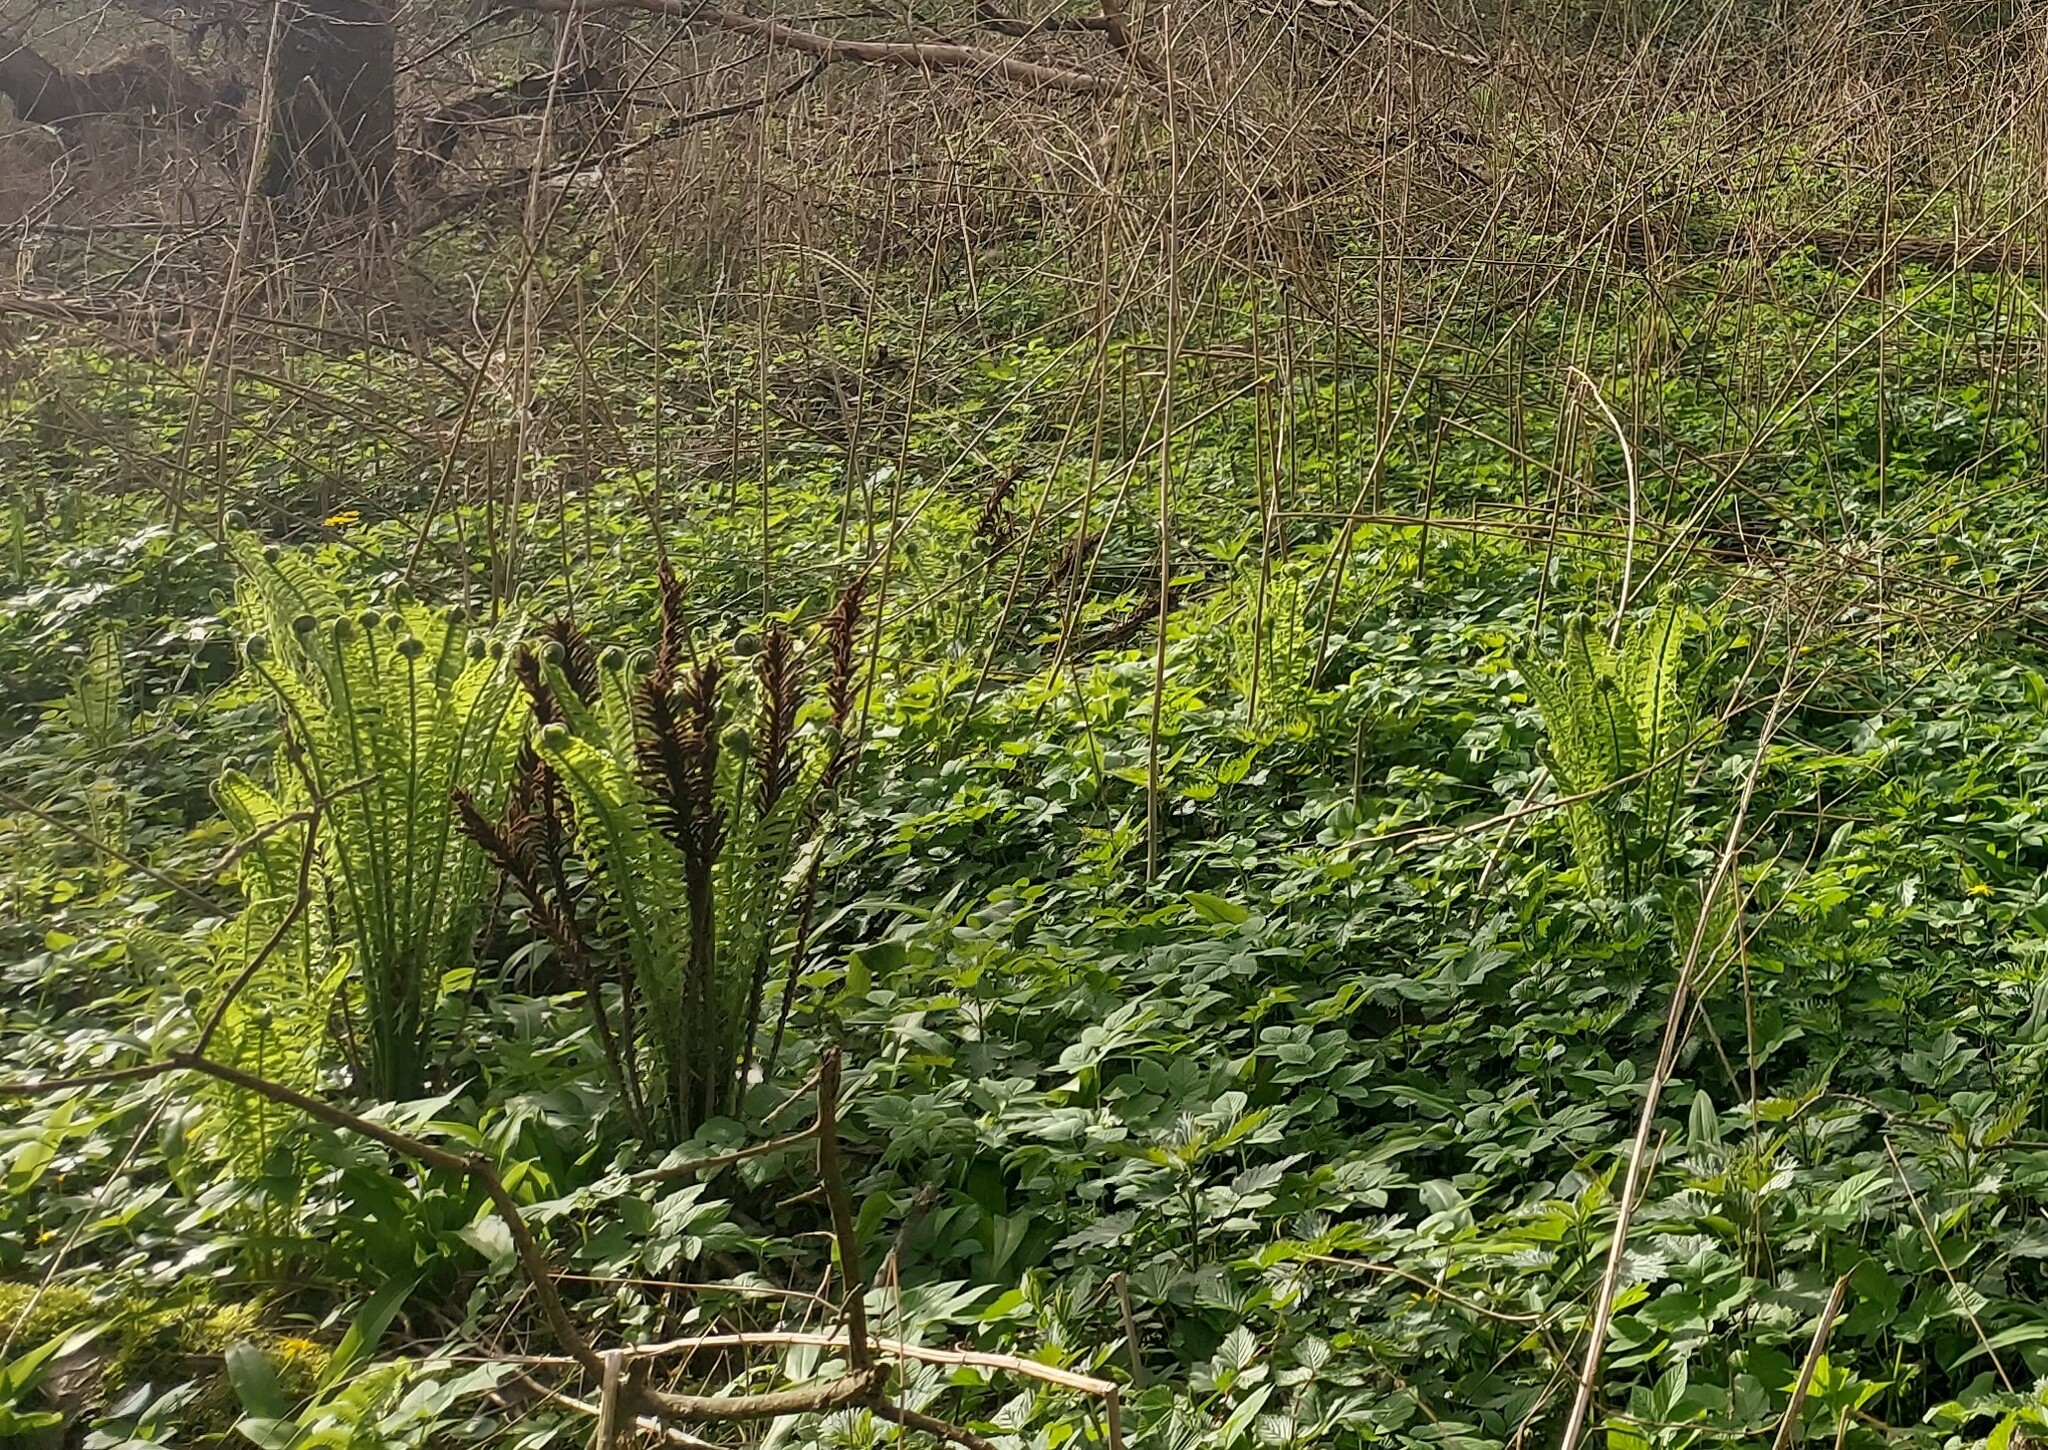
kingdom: Plantae
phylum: Tracheophyta
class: Polypodiopsida
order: Polypodiales
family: Onocleaceae
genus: Matteuccia
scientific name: Matteuccia struthiopteris
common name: Ostrich fern
